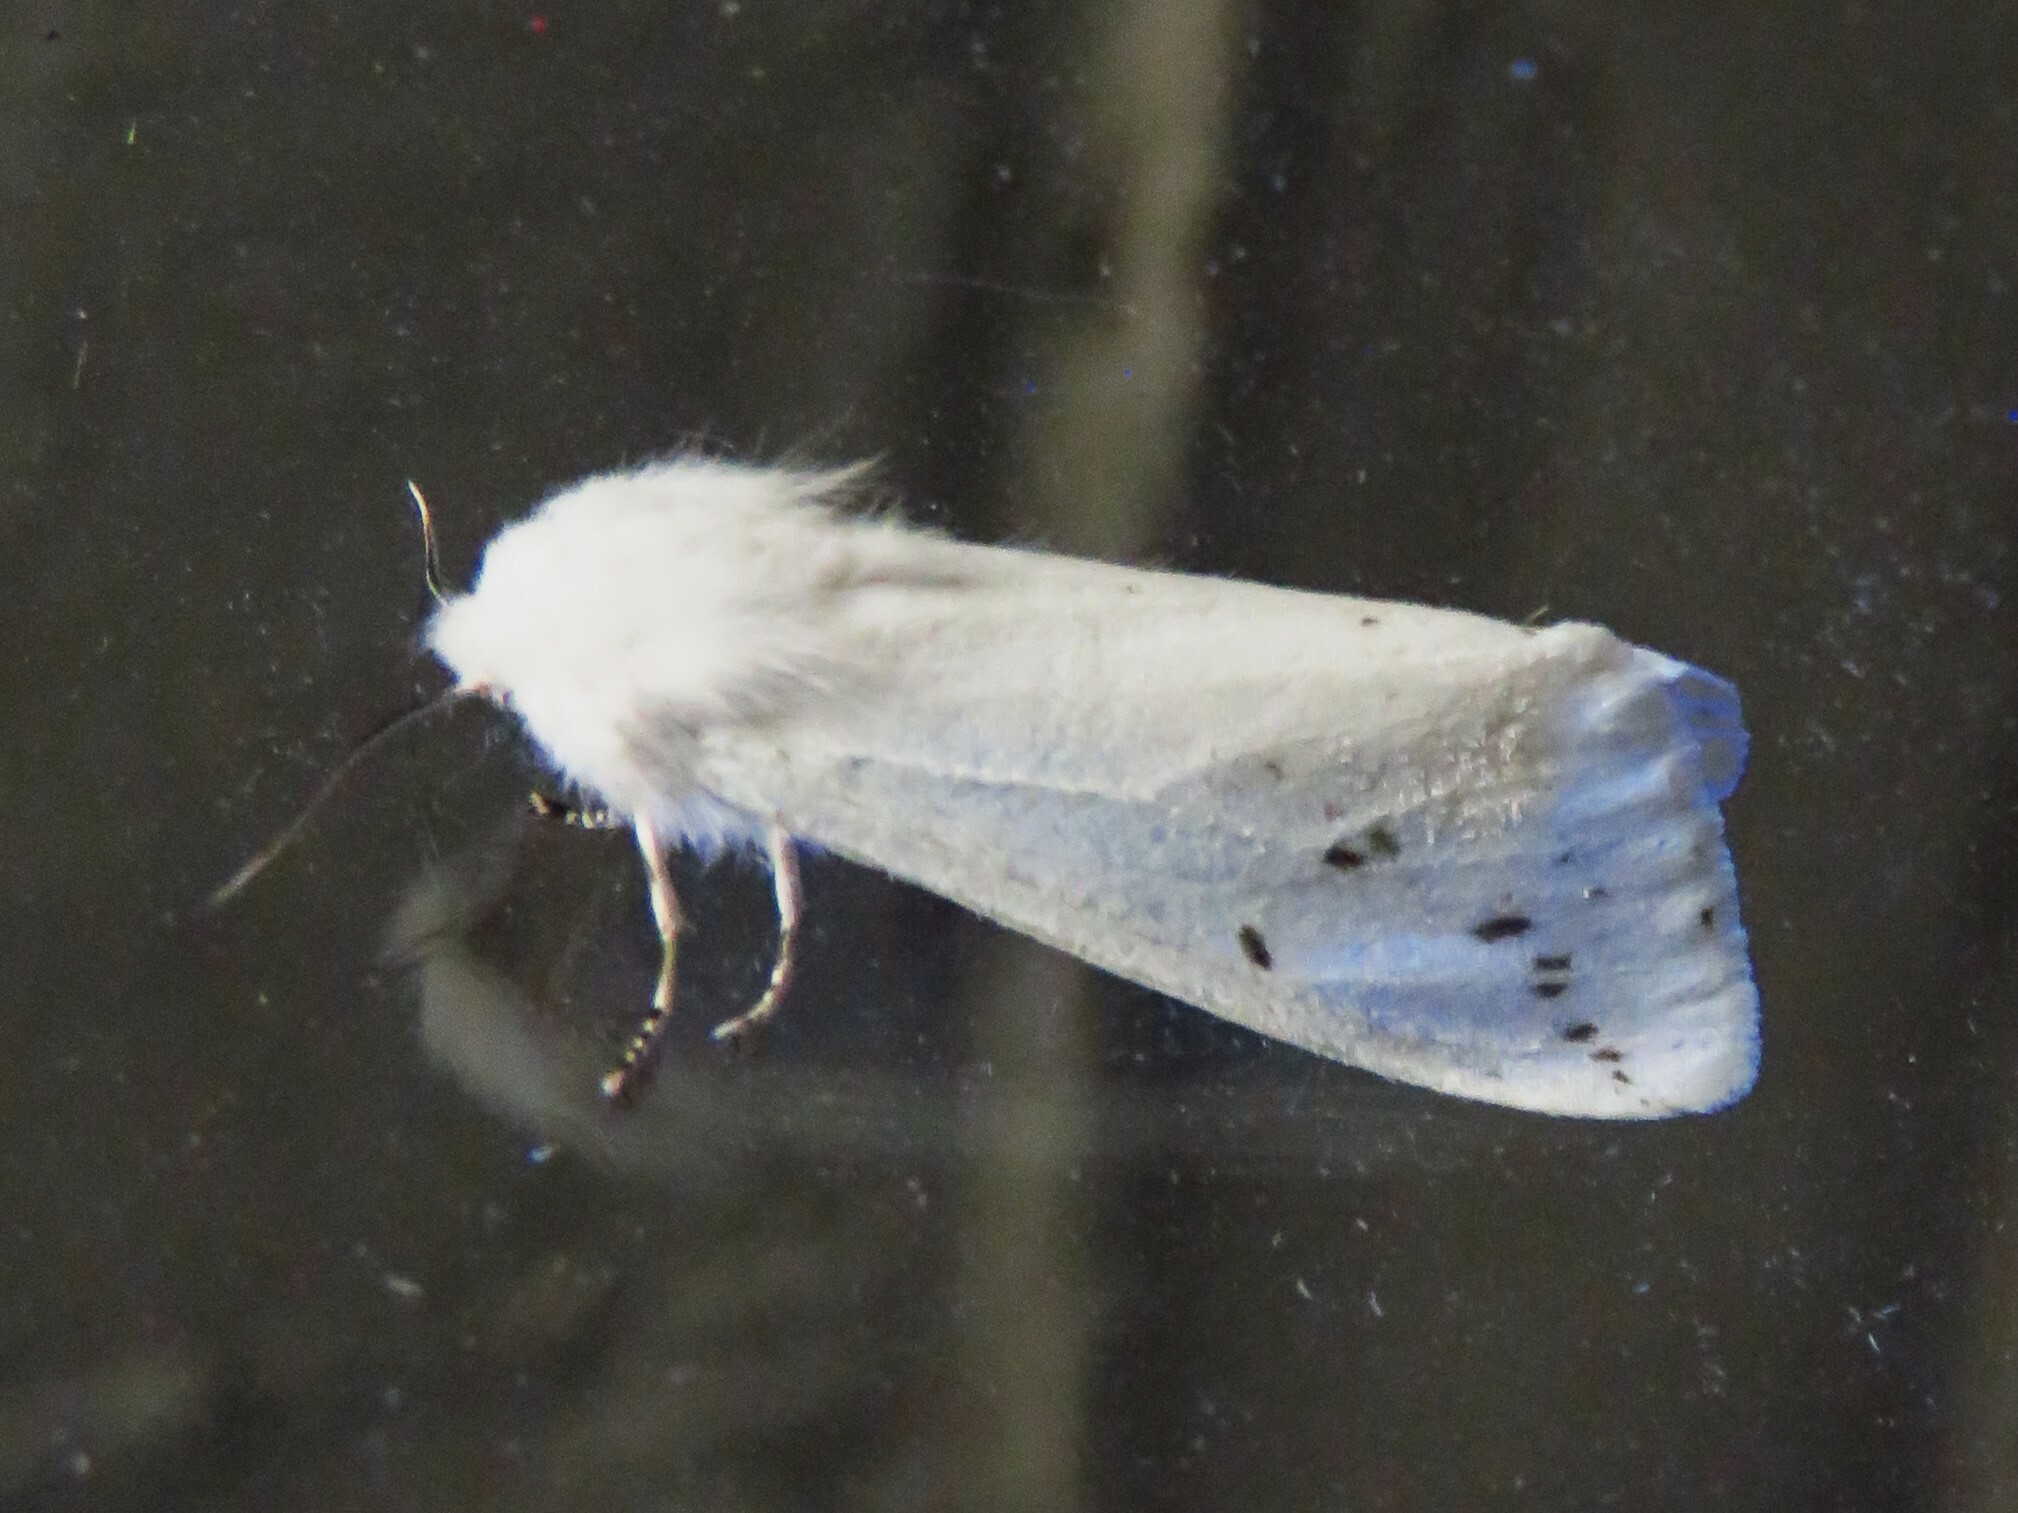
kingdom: Animalia
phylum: Arthropoda
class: Insecta
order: Lepidoptera
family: Erebidae
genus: Hyphantria
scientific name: Hyphantria cunea
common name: American white moth
